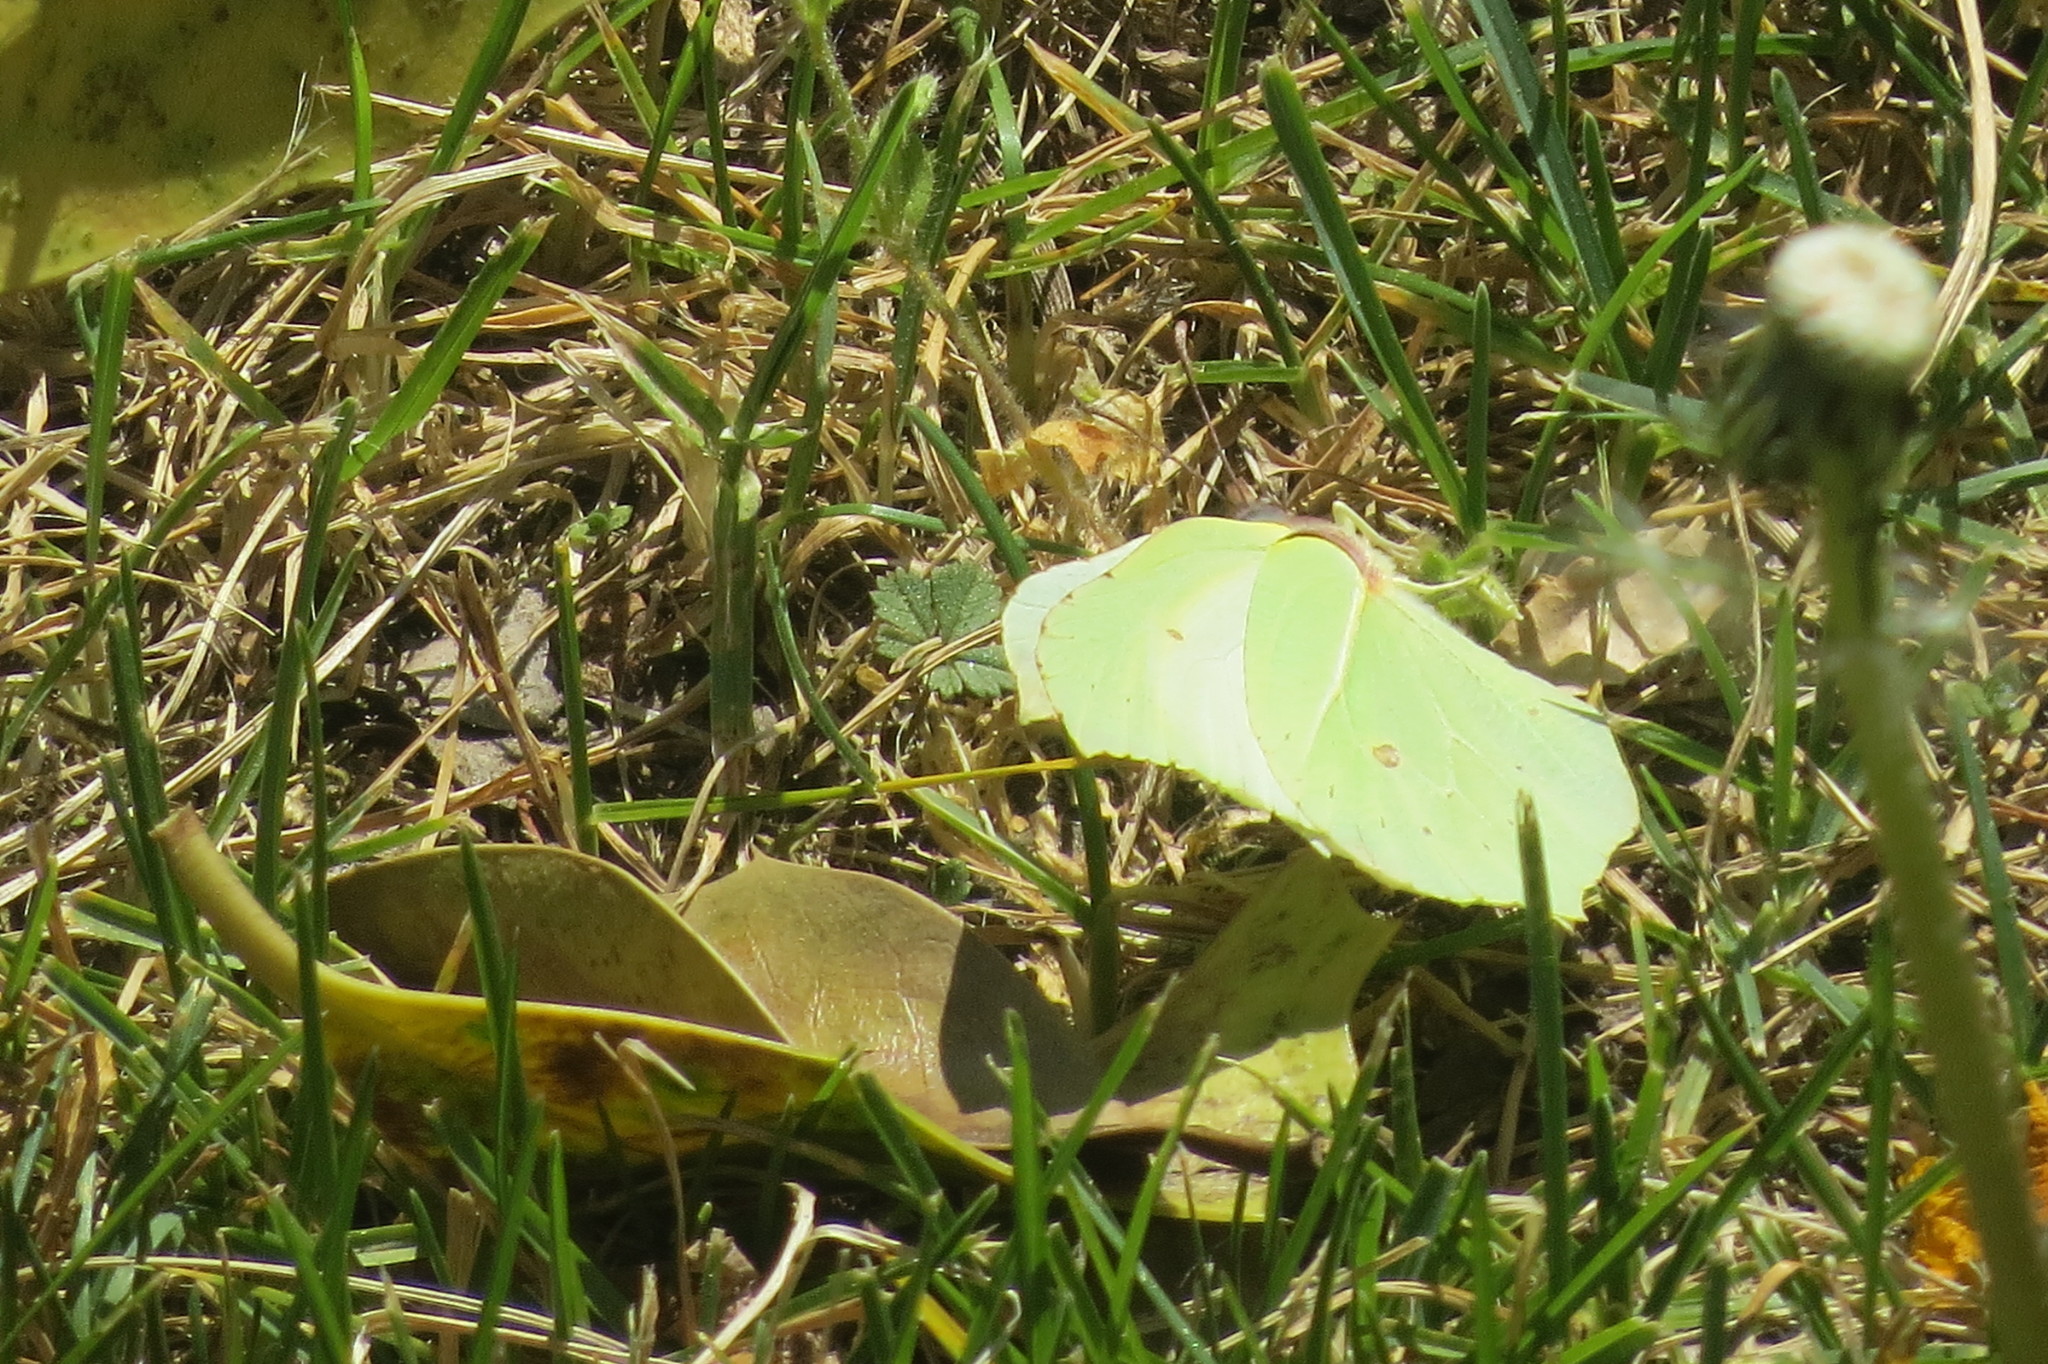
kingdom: Animalia
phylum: Arthropoda
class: Insecta
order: Lepidoptera
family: Pieridae
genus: Gonepteryx
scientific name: Gonepteryx rhamni
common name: Brimstone
